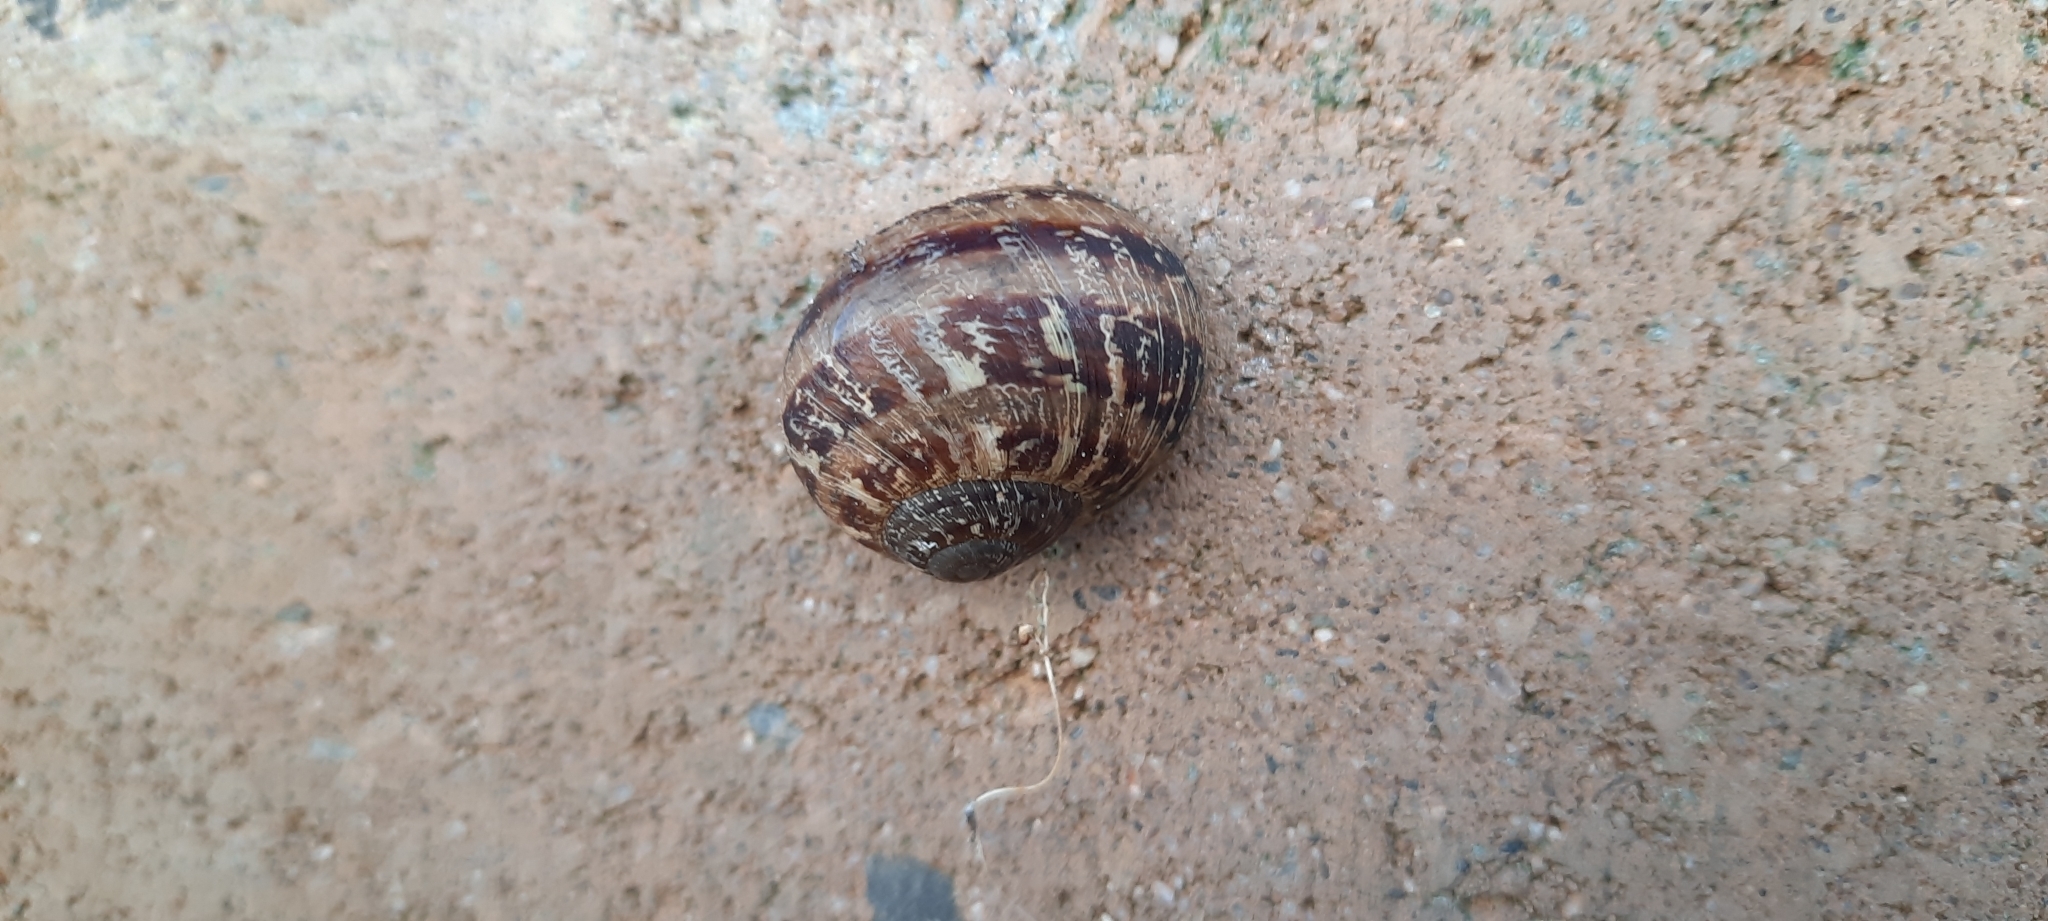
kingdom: Animalia
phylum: Mollusca
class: Gastropoda
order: Stylommatophora
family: Helicidae
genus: Cornu
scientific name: Cornu aspersum
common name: Brown garden snail
